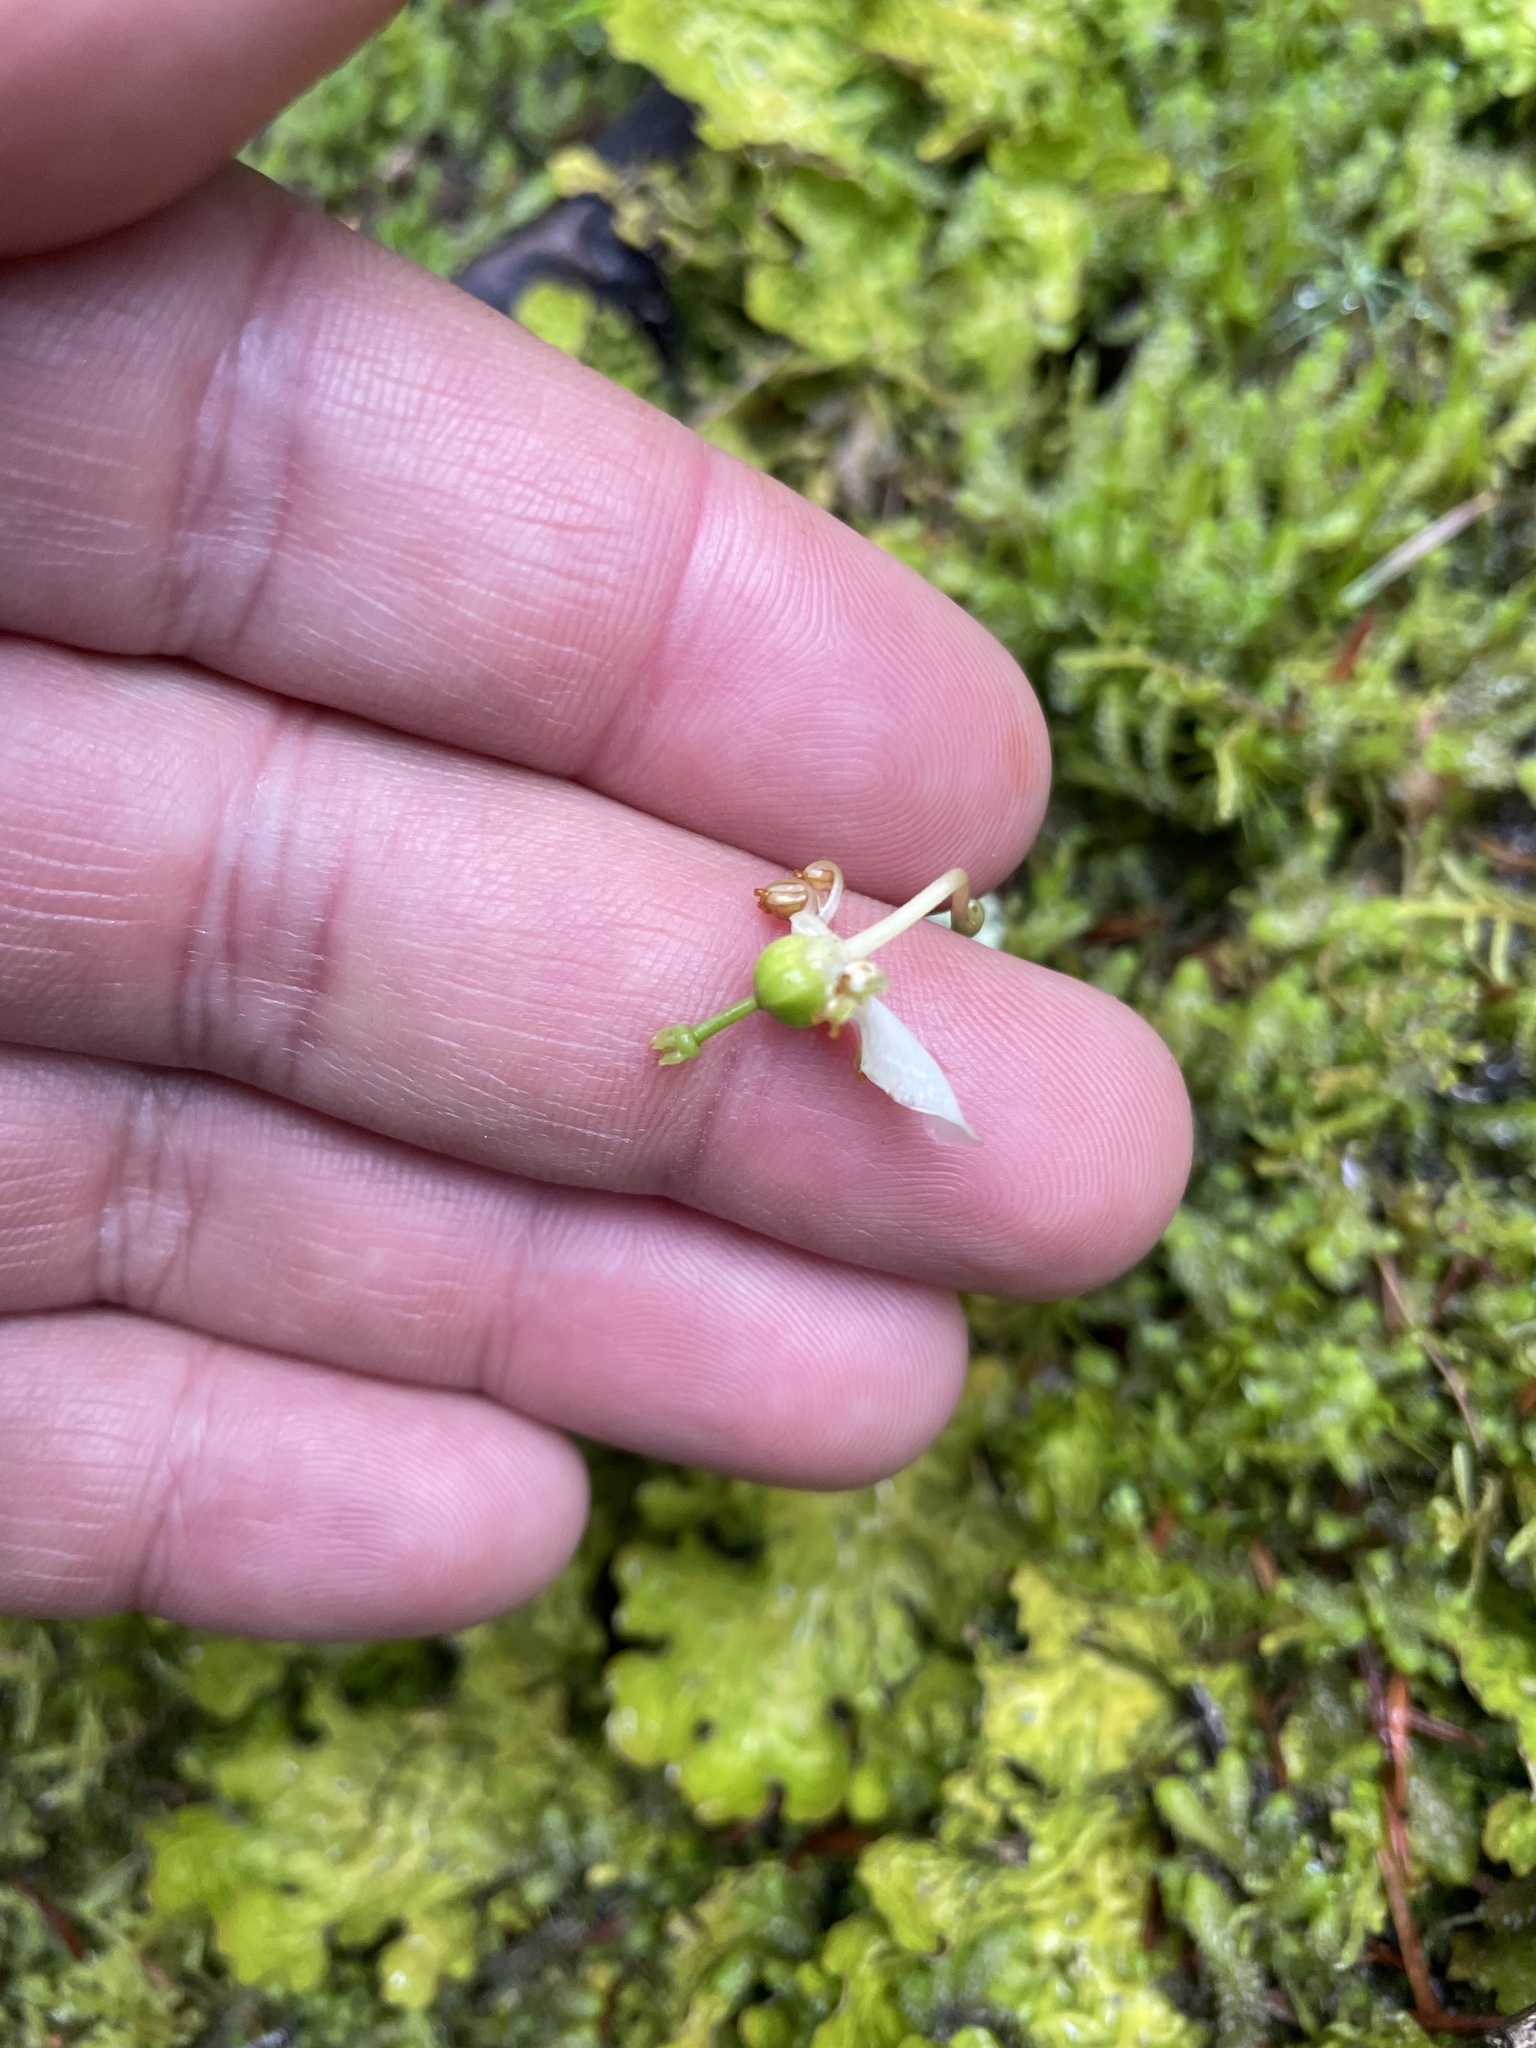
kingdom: Plantae
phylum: Tracheophyta
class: Magnoliopsida
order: Ericales
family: Ericaceae
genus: Moneses
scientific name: Moneses uniflora
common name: One-flowered wintergreen
